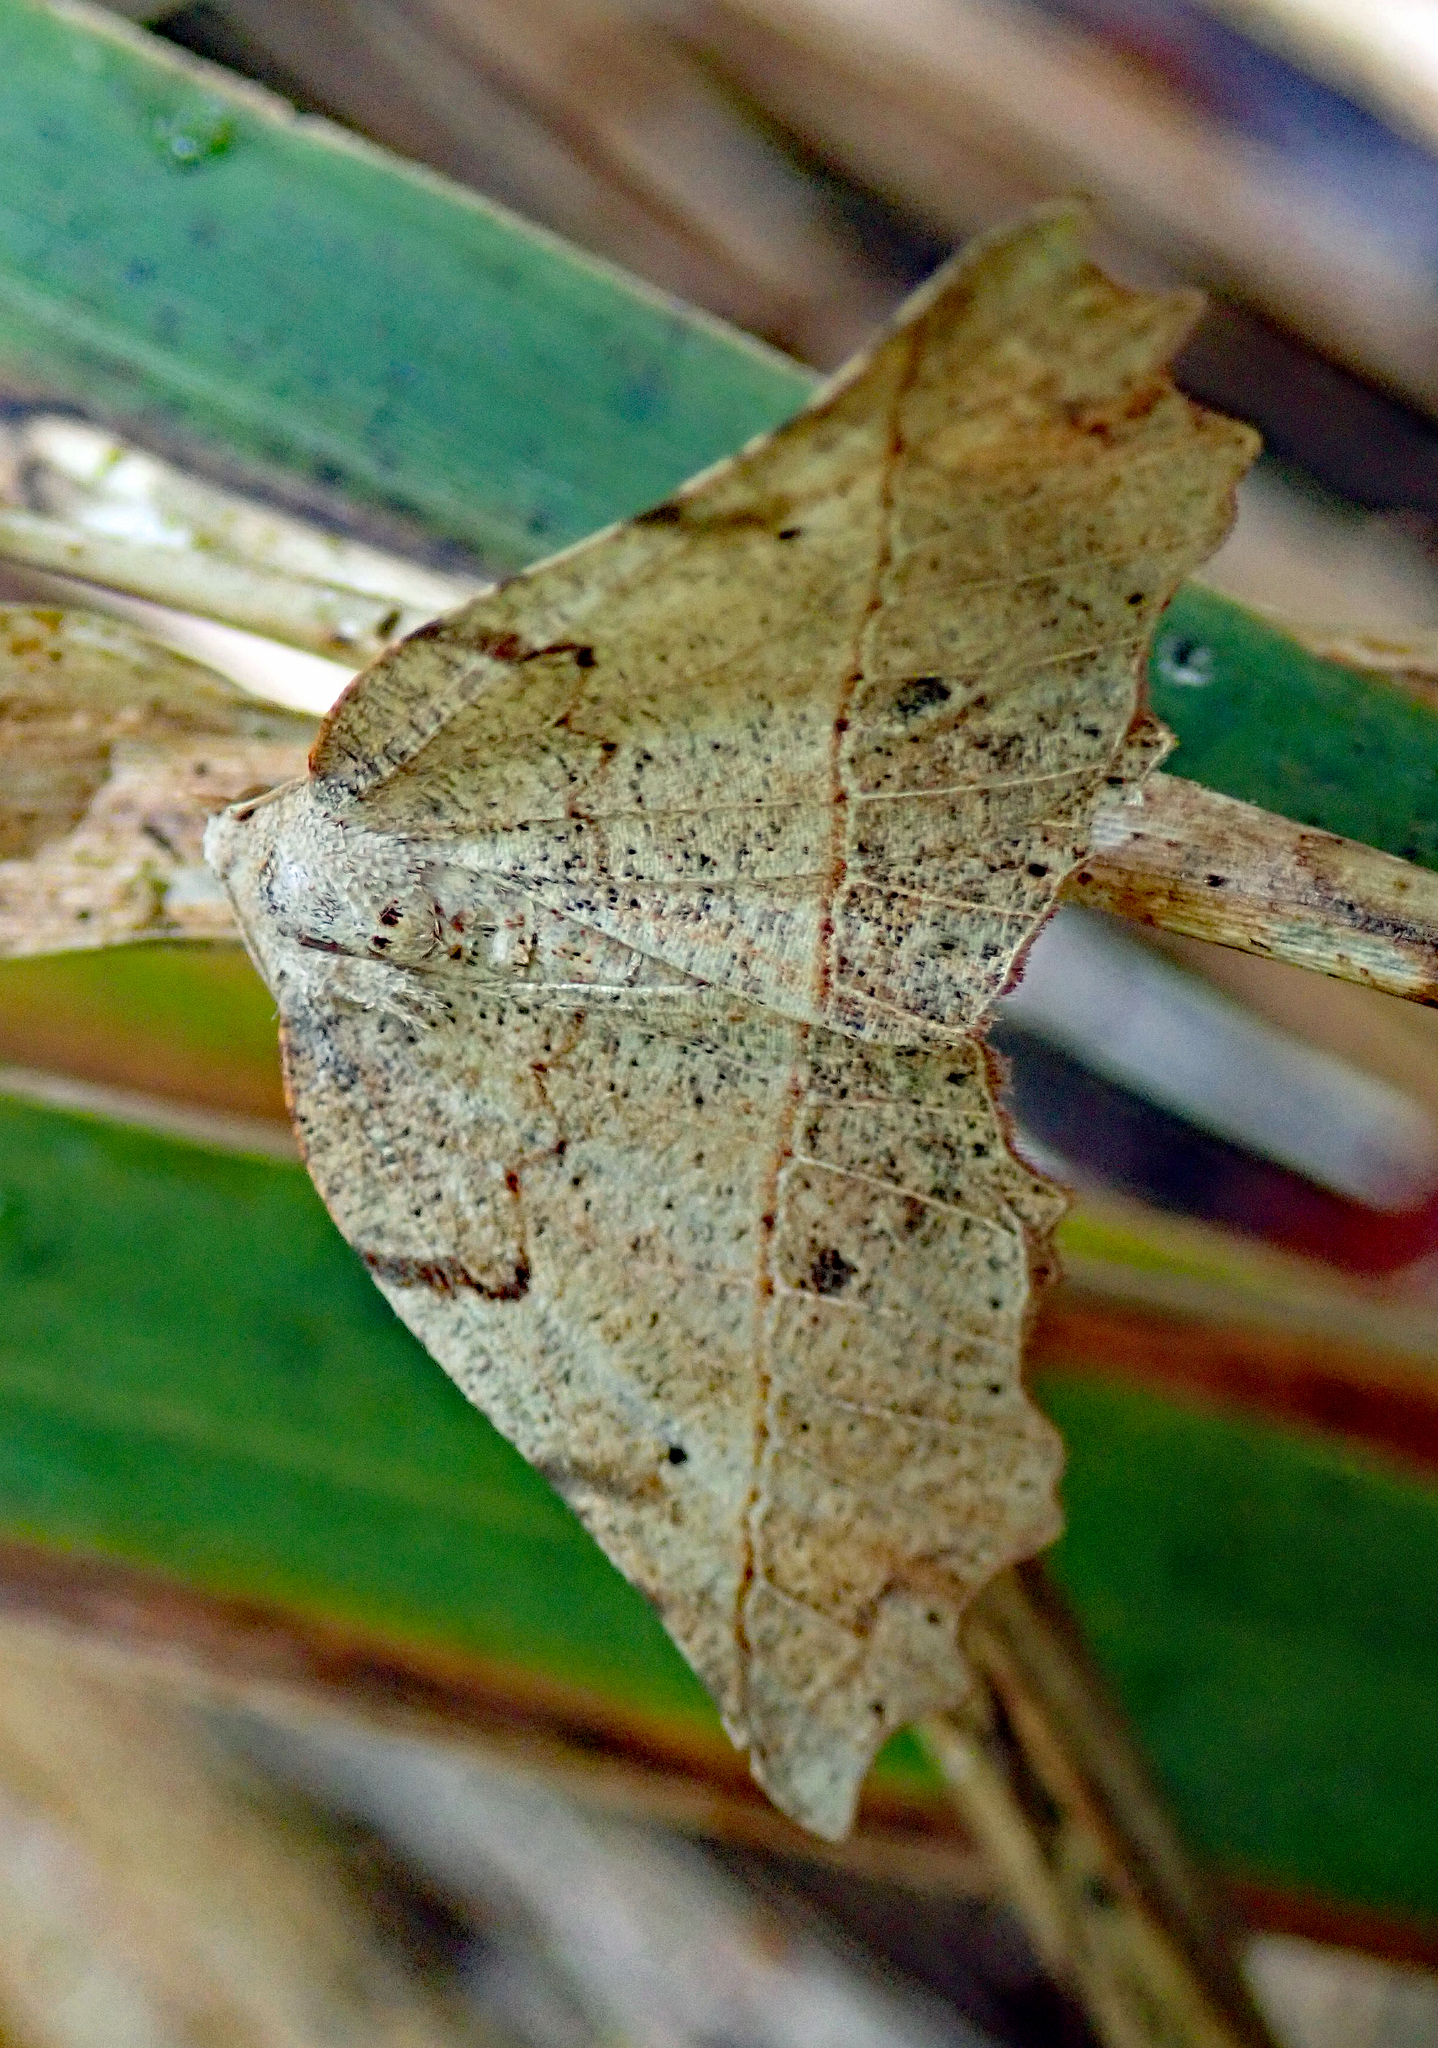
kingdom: Animalia
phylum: Arthropoda
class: Insecta
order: Lepidoptera
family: Geometridae
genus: Ischalis
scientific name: Ischalis gallaria
